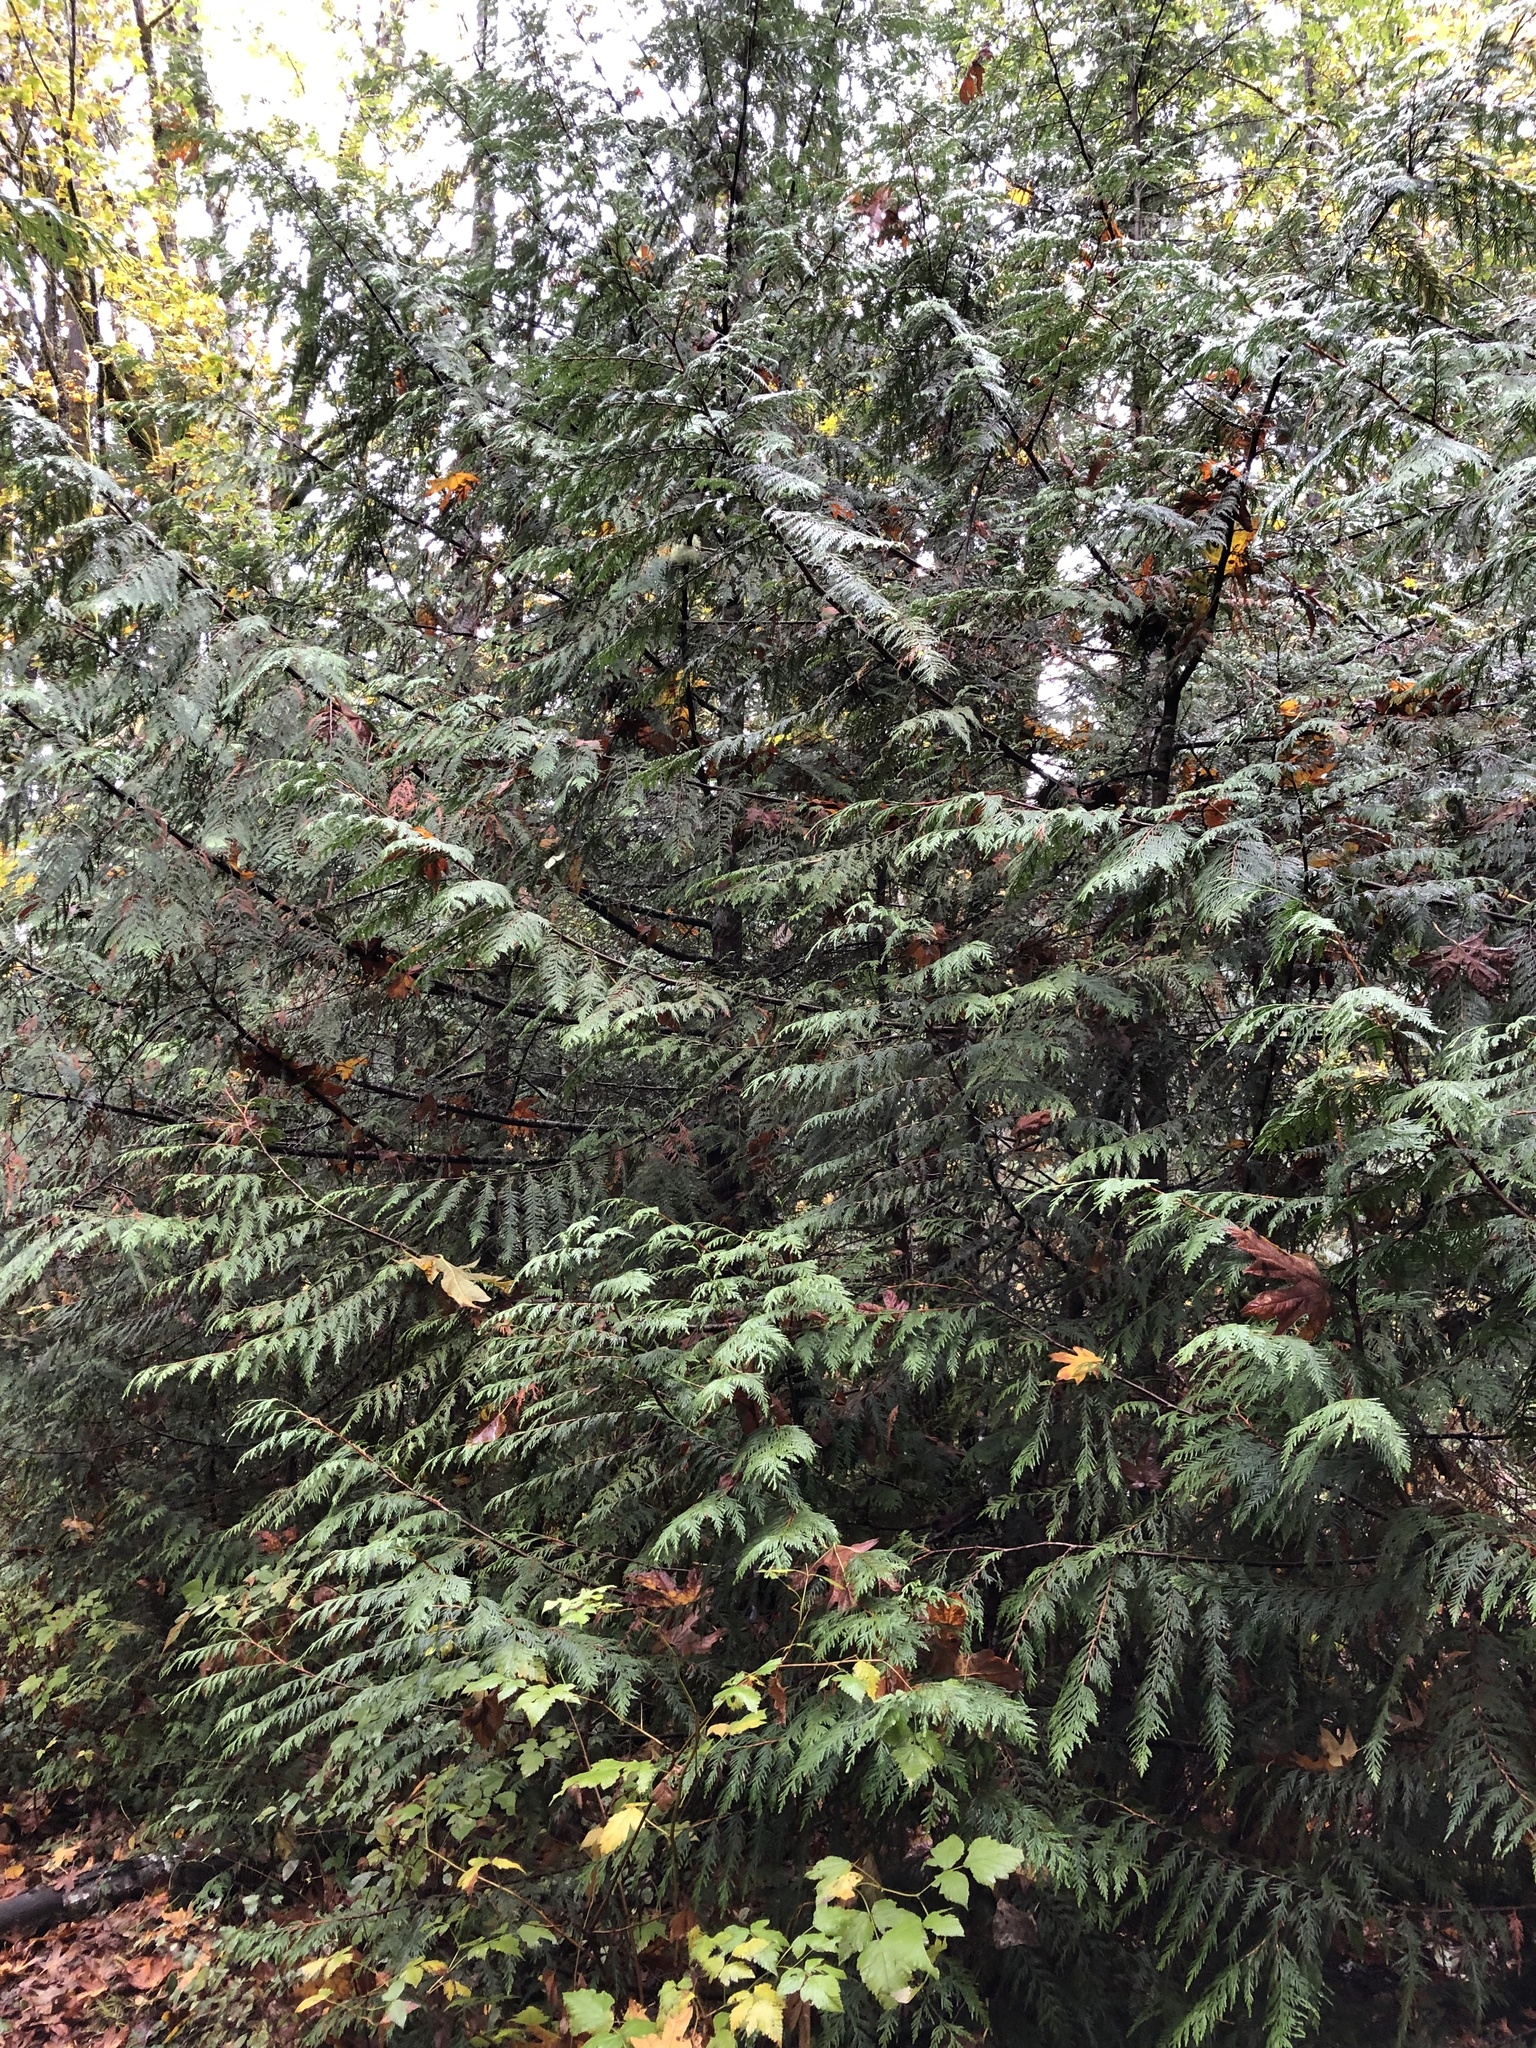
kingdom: Plantae
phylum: Tracheophyta
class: Pinopsida
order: Pinales
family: Cupressaceae
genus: Thuja
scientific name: Thuja plicata
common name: Western red-cedar
